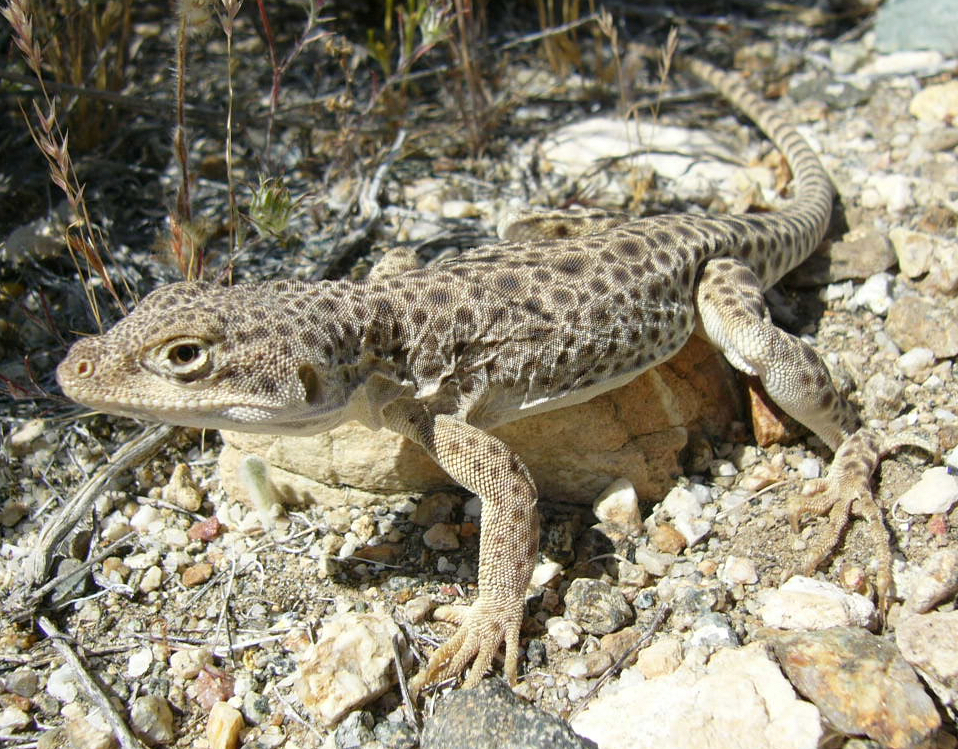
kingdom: Animalia
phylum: Chordata
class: Squamata
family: Crotaphytidae
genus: Gambelia
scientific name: Gambelia wislizenii
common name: Longnose leopard lizard
